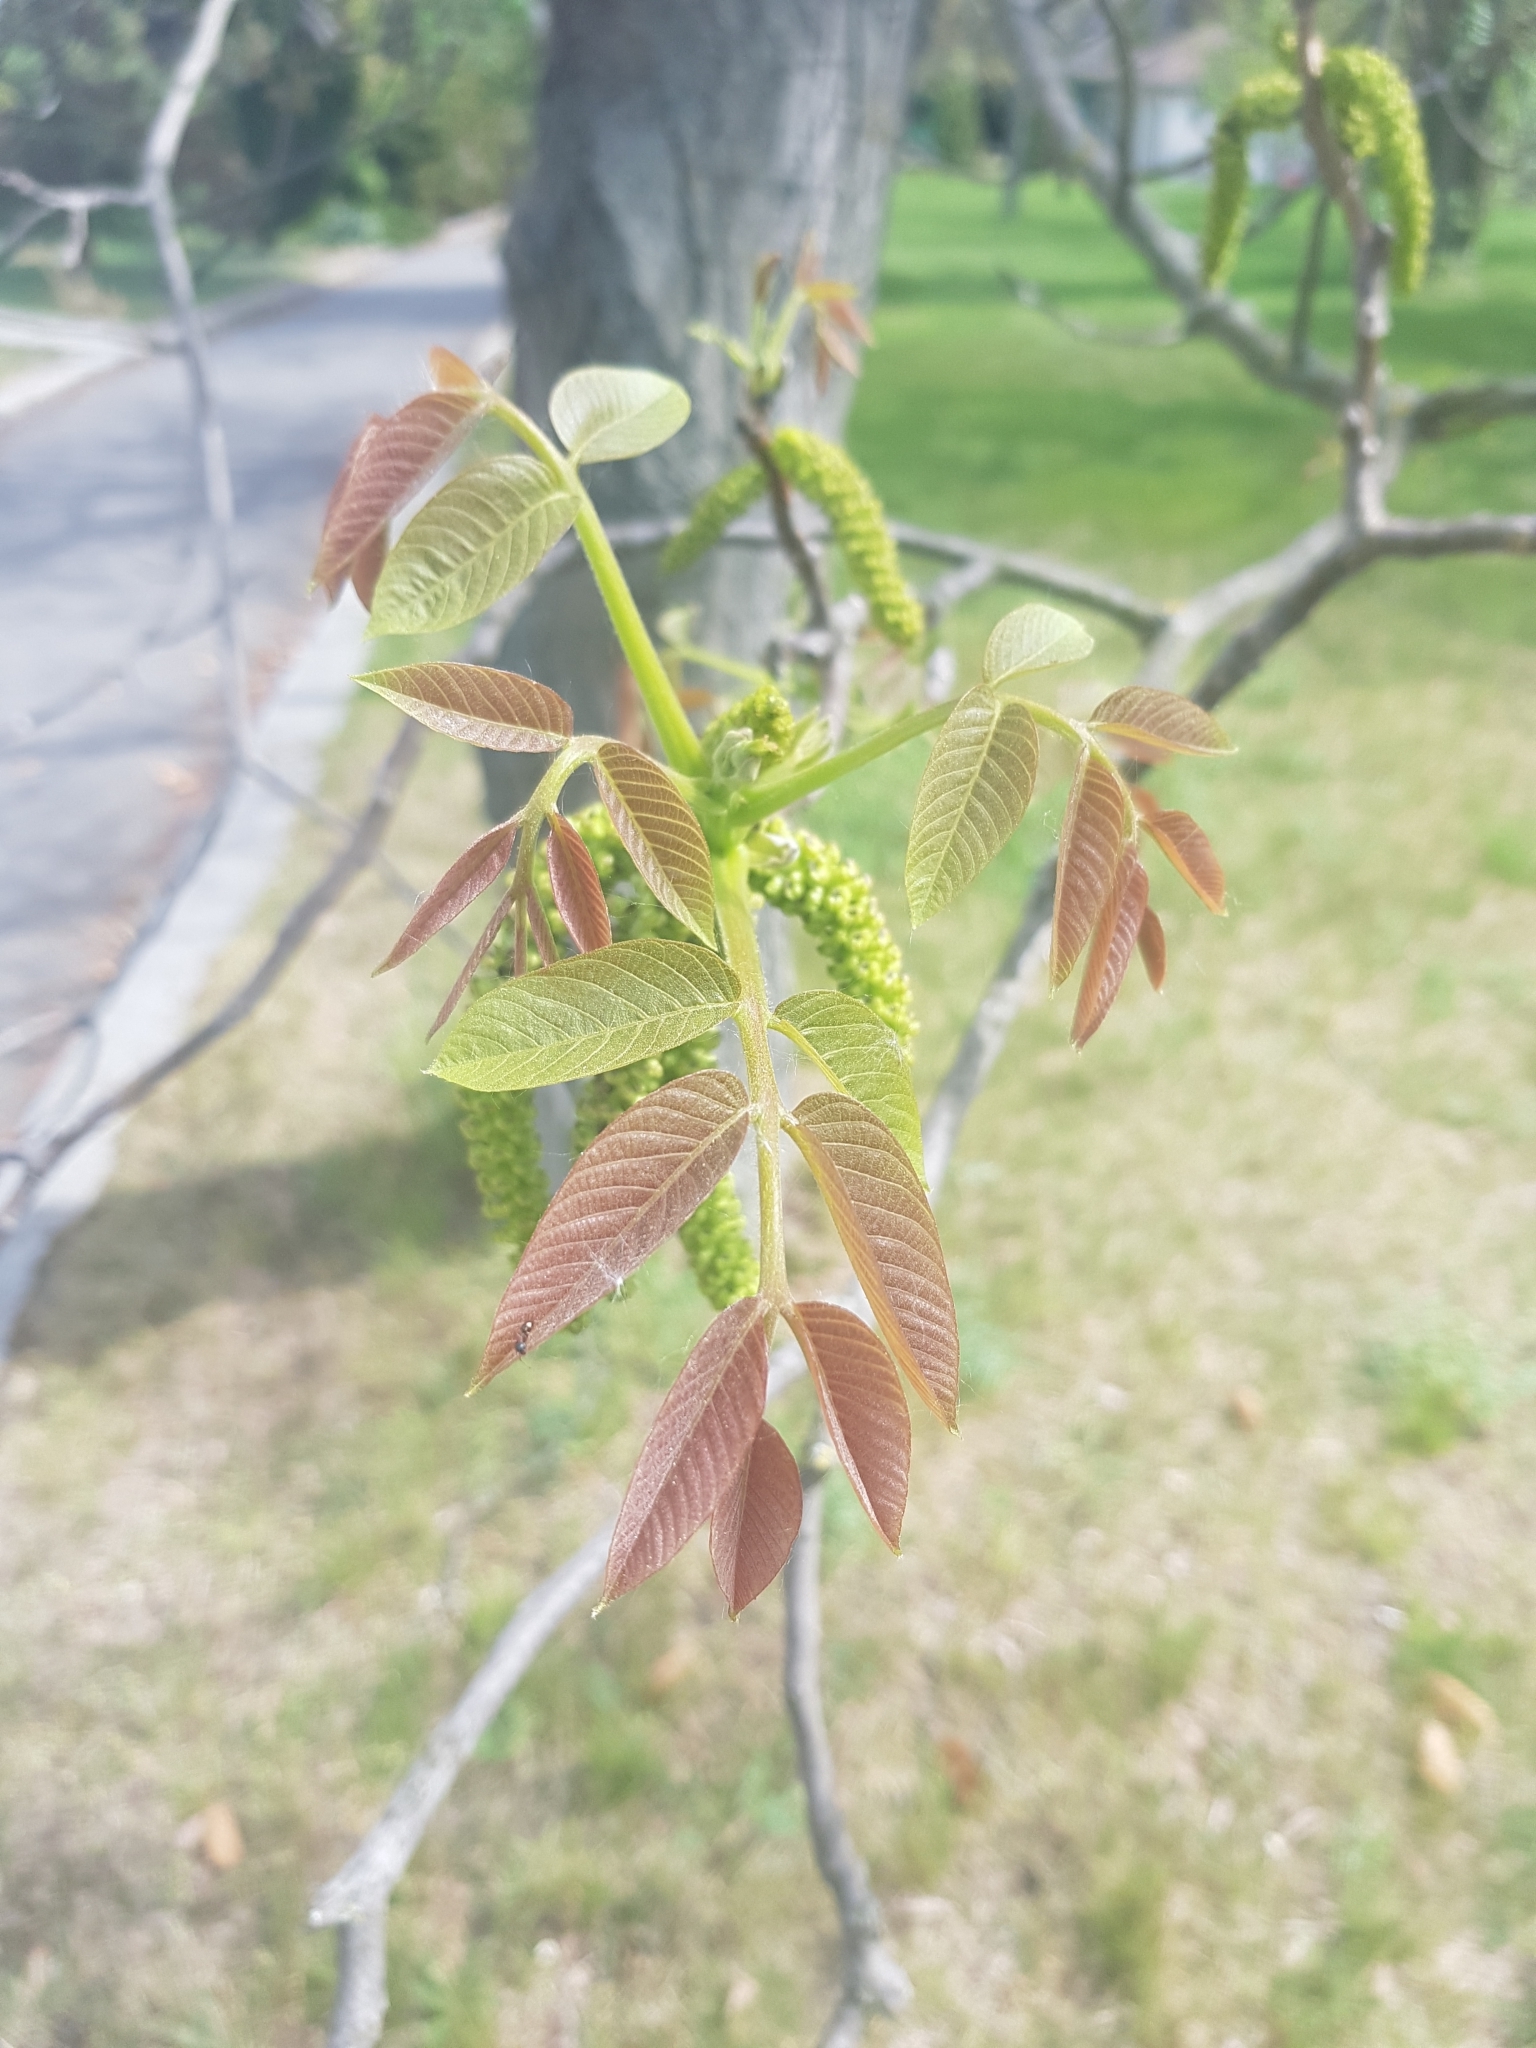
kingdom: Plantae
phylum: Tracheophyta
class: Magnoliopsida
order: Fagales
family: Juglandaceae
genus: Juglans
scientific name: Juglans regia
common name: Walnut
